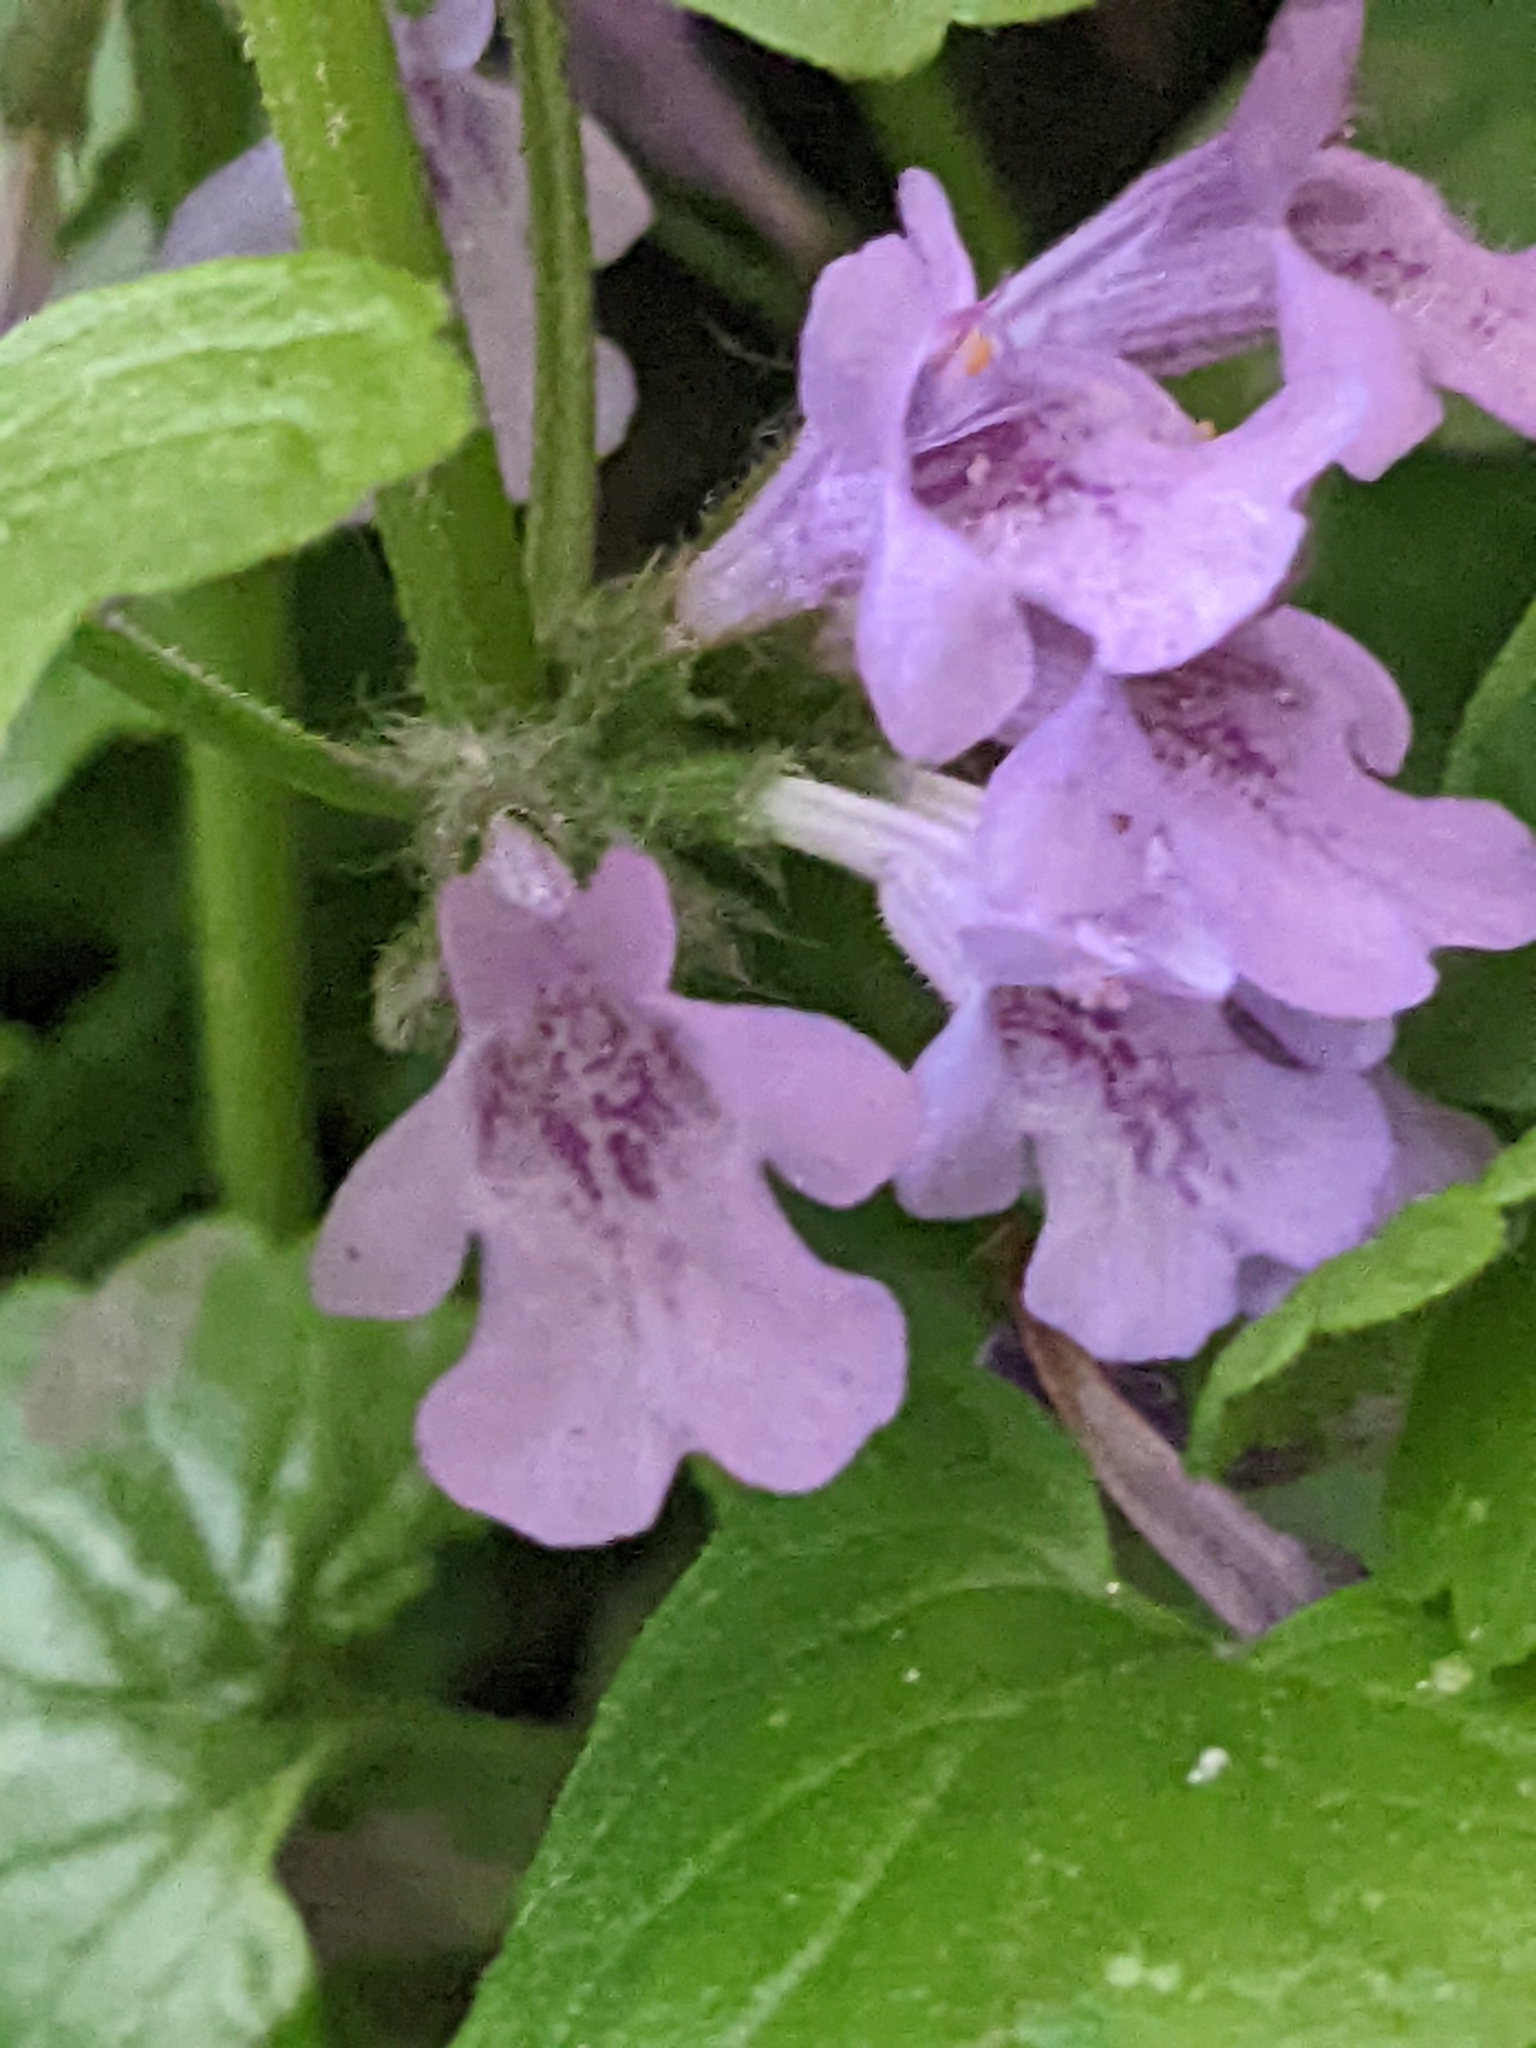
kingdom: Plantae
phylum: Tracheophyta
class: Magnoliopsida
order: Lamiales
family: Lamiaceae
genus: Glechoma
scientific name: Glechoma hederacea
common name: Ground ivy
